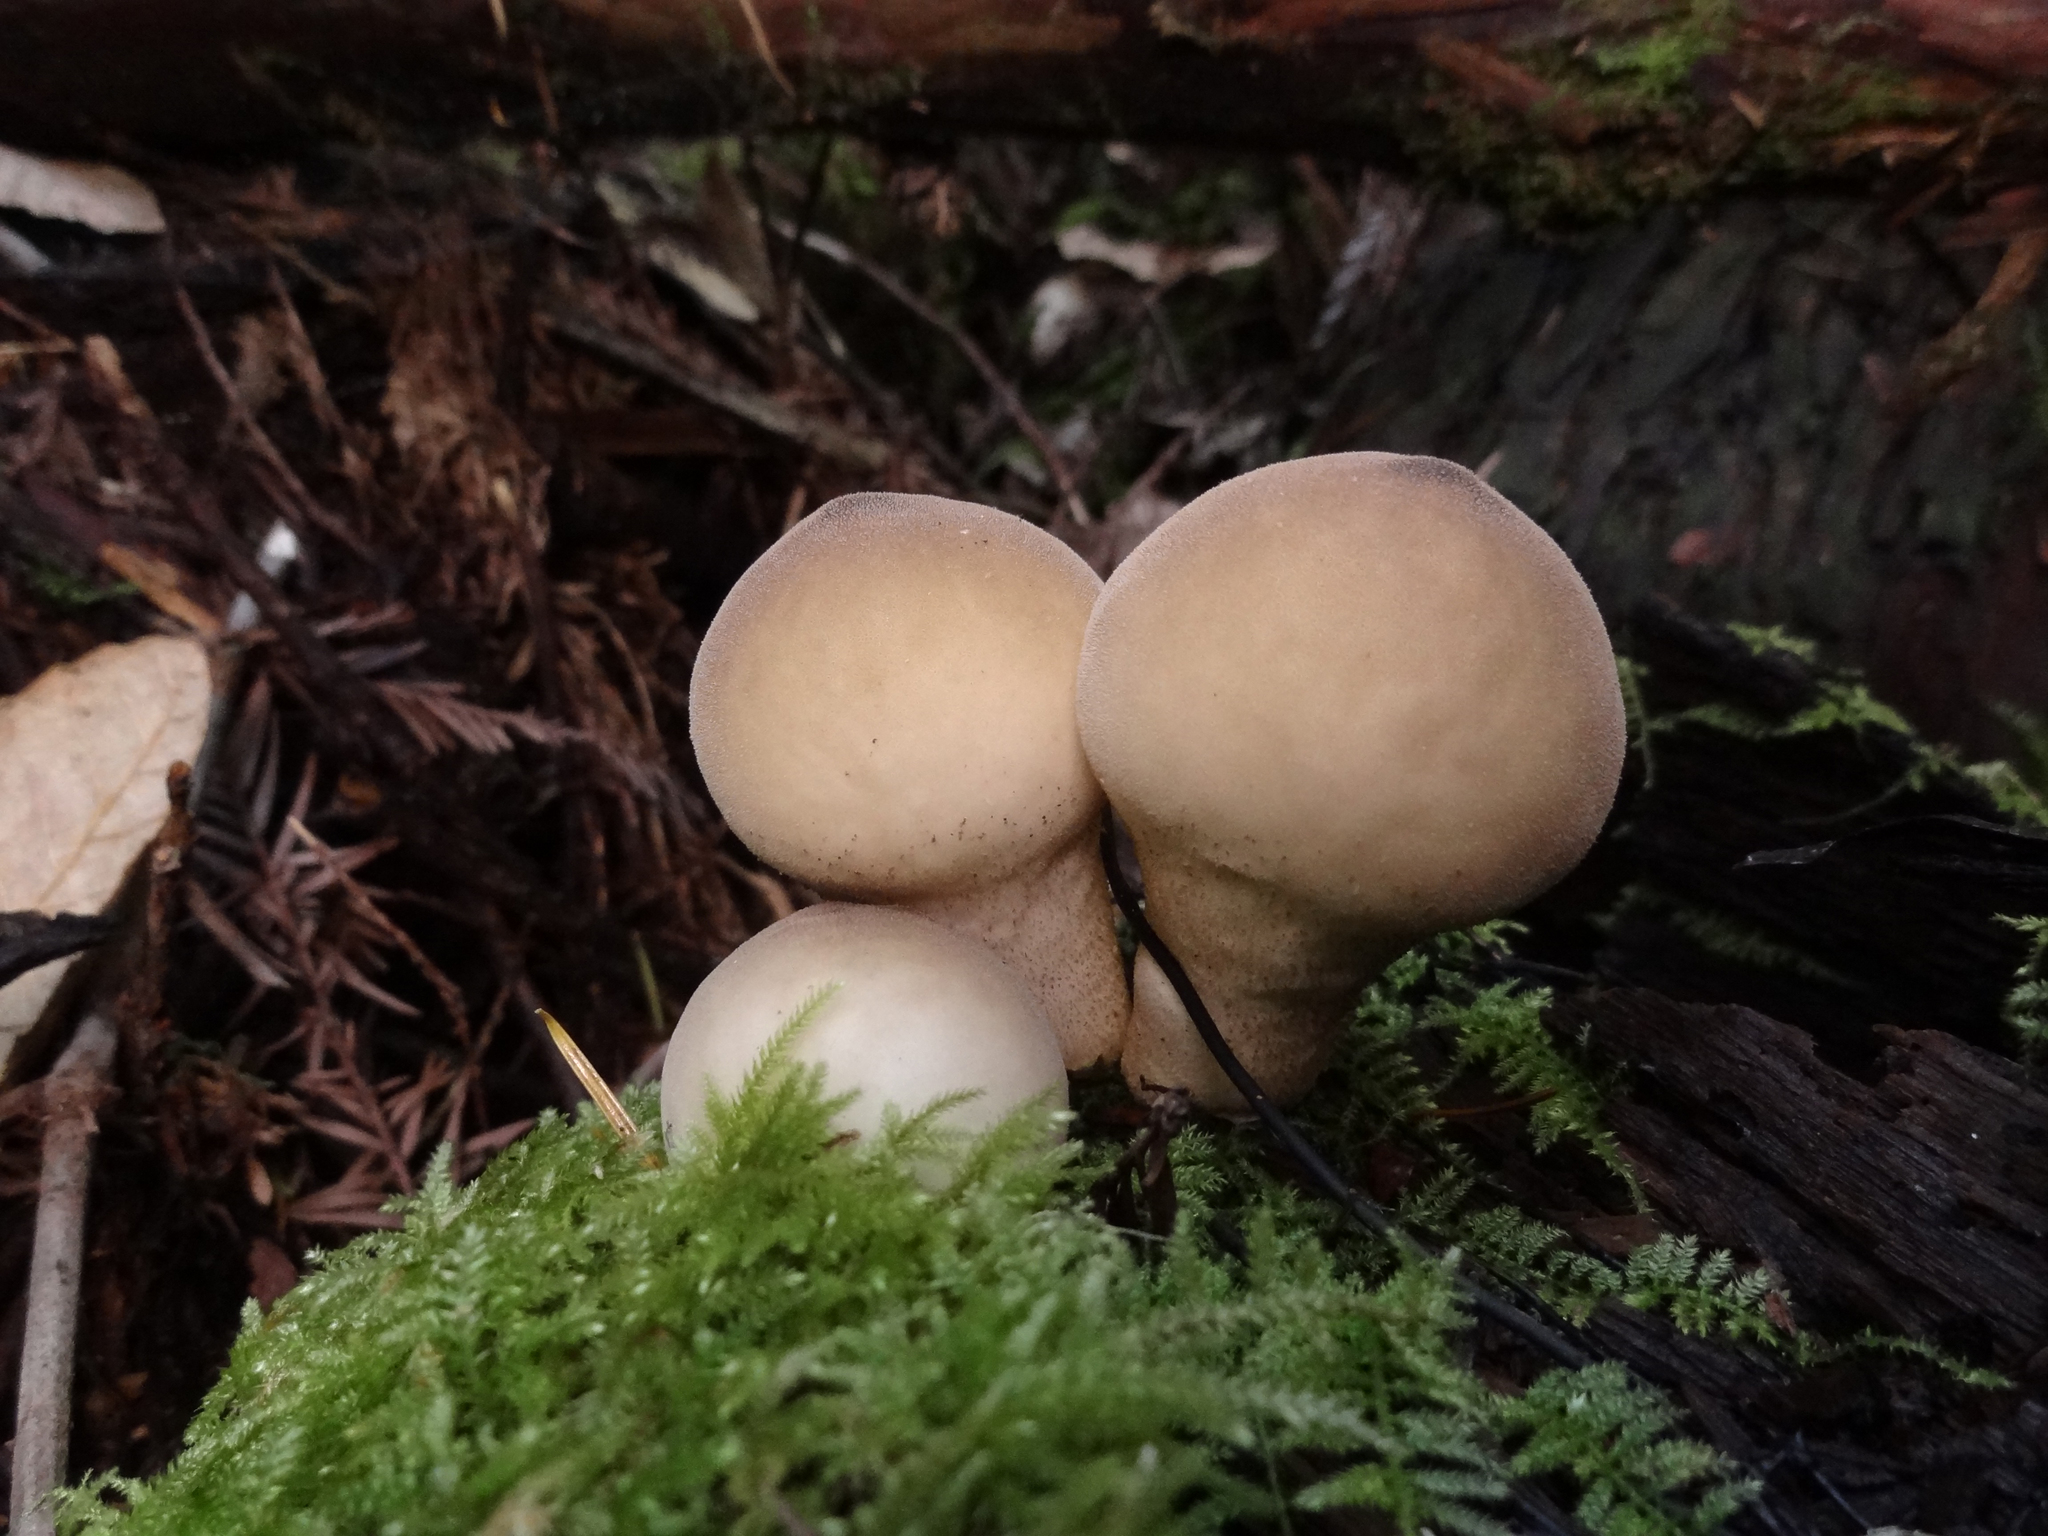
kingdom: Fungi
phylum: Basidiomycota
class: Agaricomycetes
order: Agaricales
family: Lycoperdaceae
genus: Apioperdon
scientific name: Apioperdon pyriforme
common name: Pear-shaped puffball
